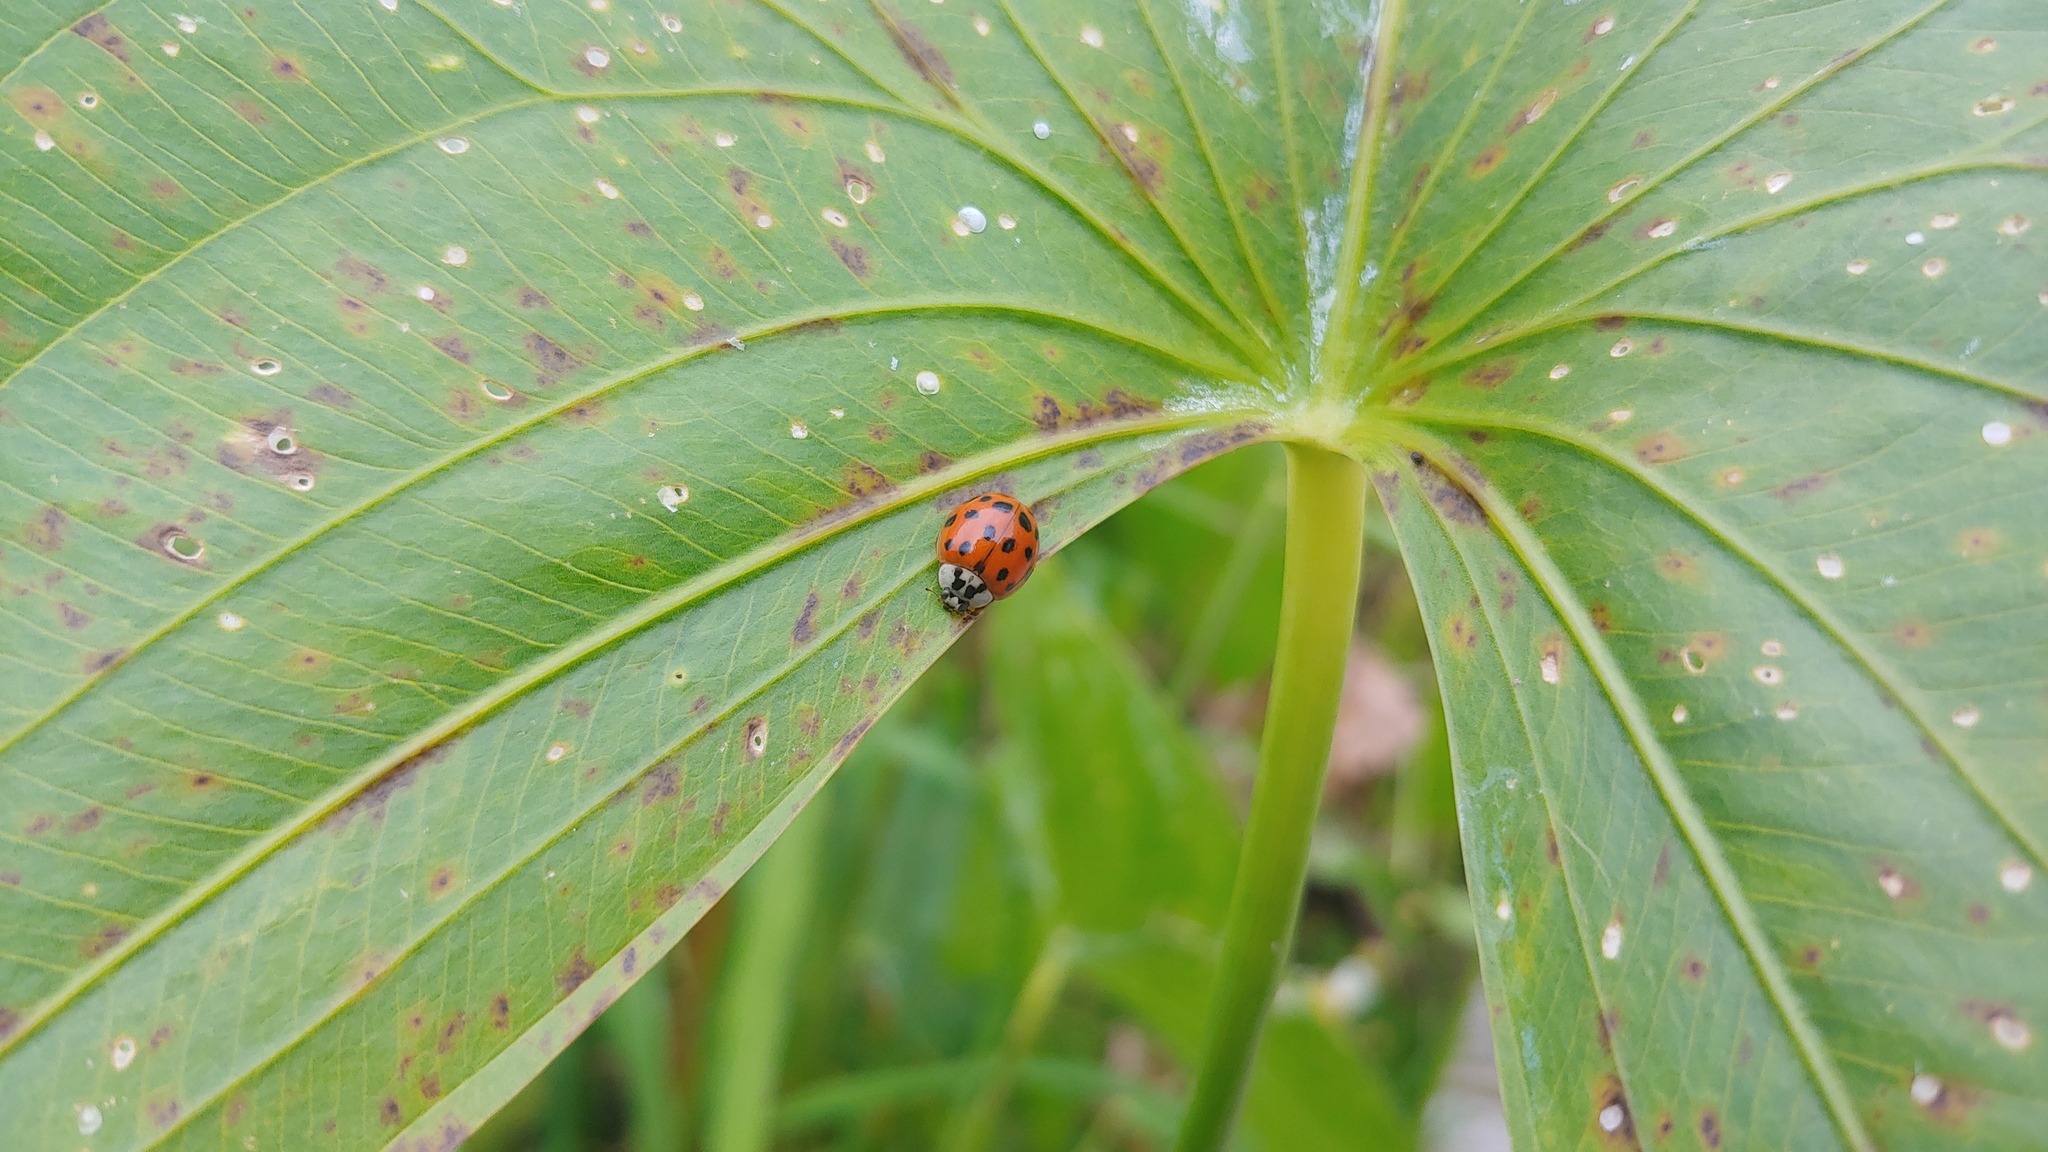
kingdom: Animalia
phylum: Arthropoda
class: Insecta
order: Coleoptera
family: Coccinellidae
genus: Harmonia
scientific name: Harmonia axyridis
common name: Harlequin ladybird
